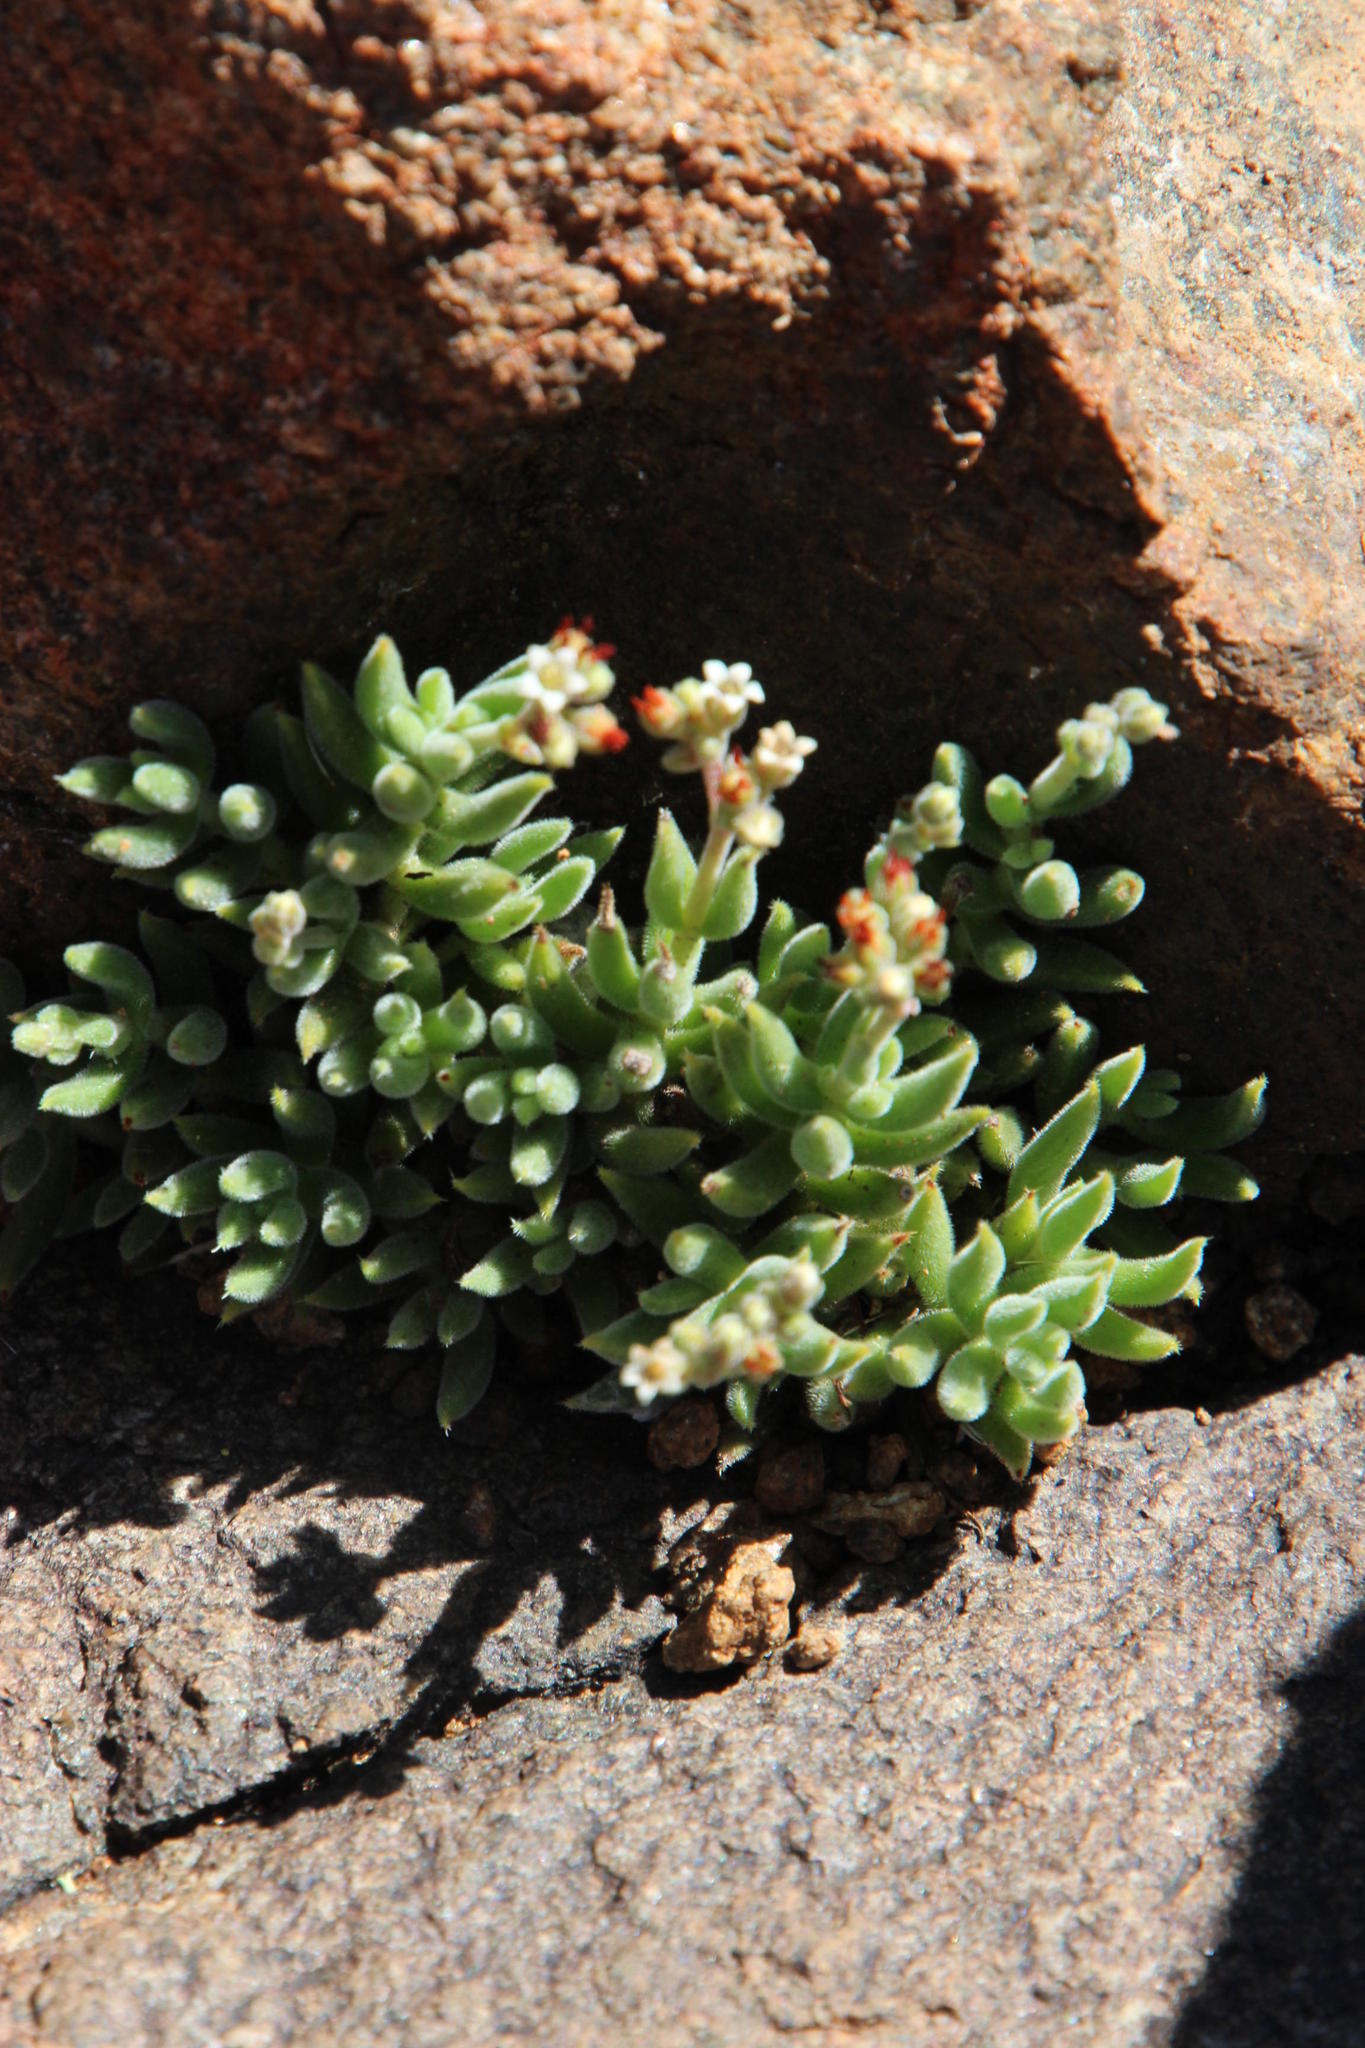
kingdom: Plantae
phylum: Tracheophyta
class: Magnoliopsida
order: Saxifragales
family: Crassulaceae
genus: Crassula
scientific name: Crassula lanuginosa
